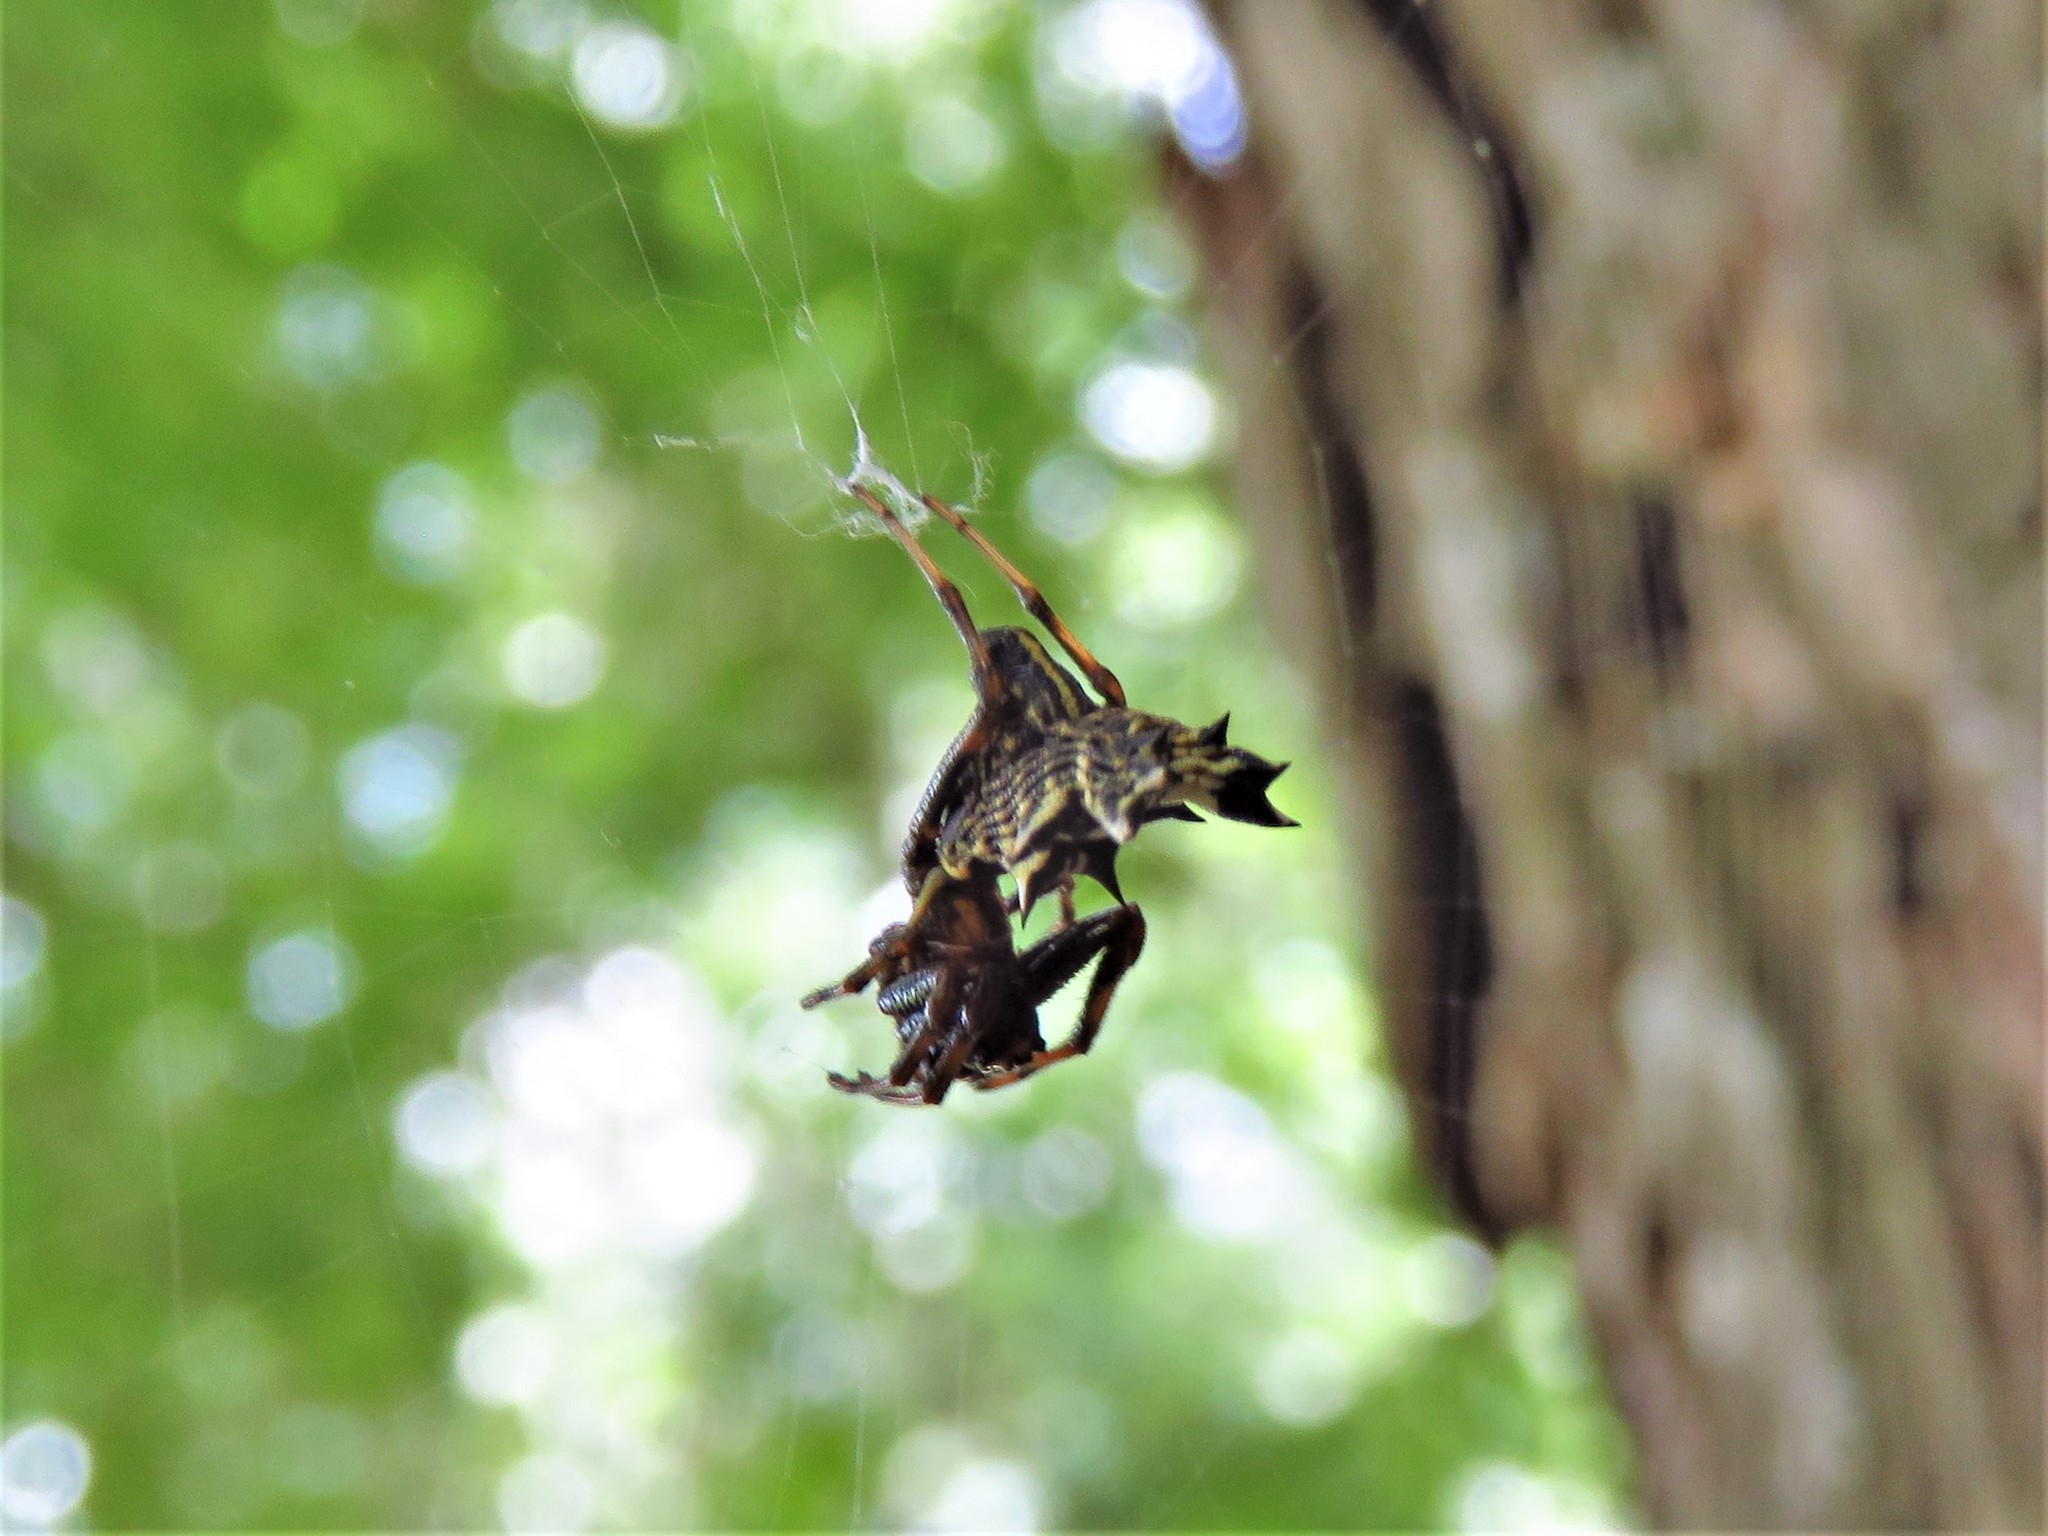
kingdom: Animalia
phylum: Arthropoda
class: Arachnida
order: Araneae
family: Araneidae
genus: Micrathena
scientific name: Micrathena gracilis
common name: Orb weavers
